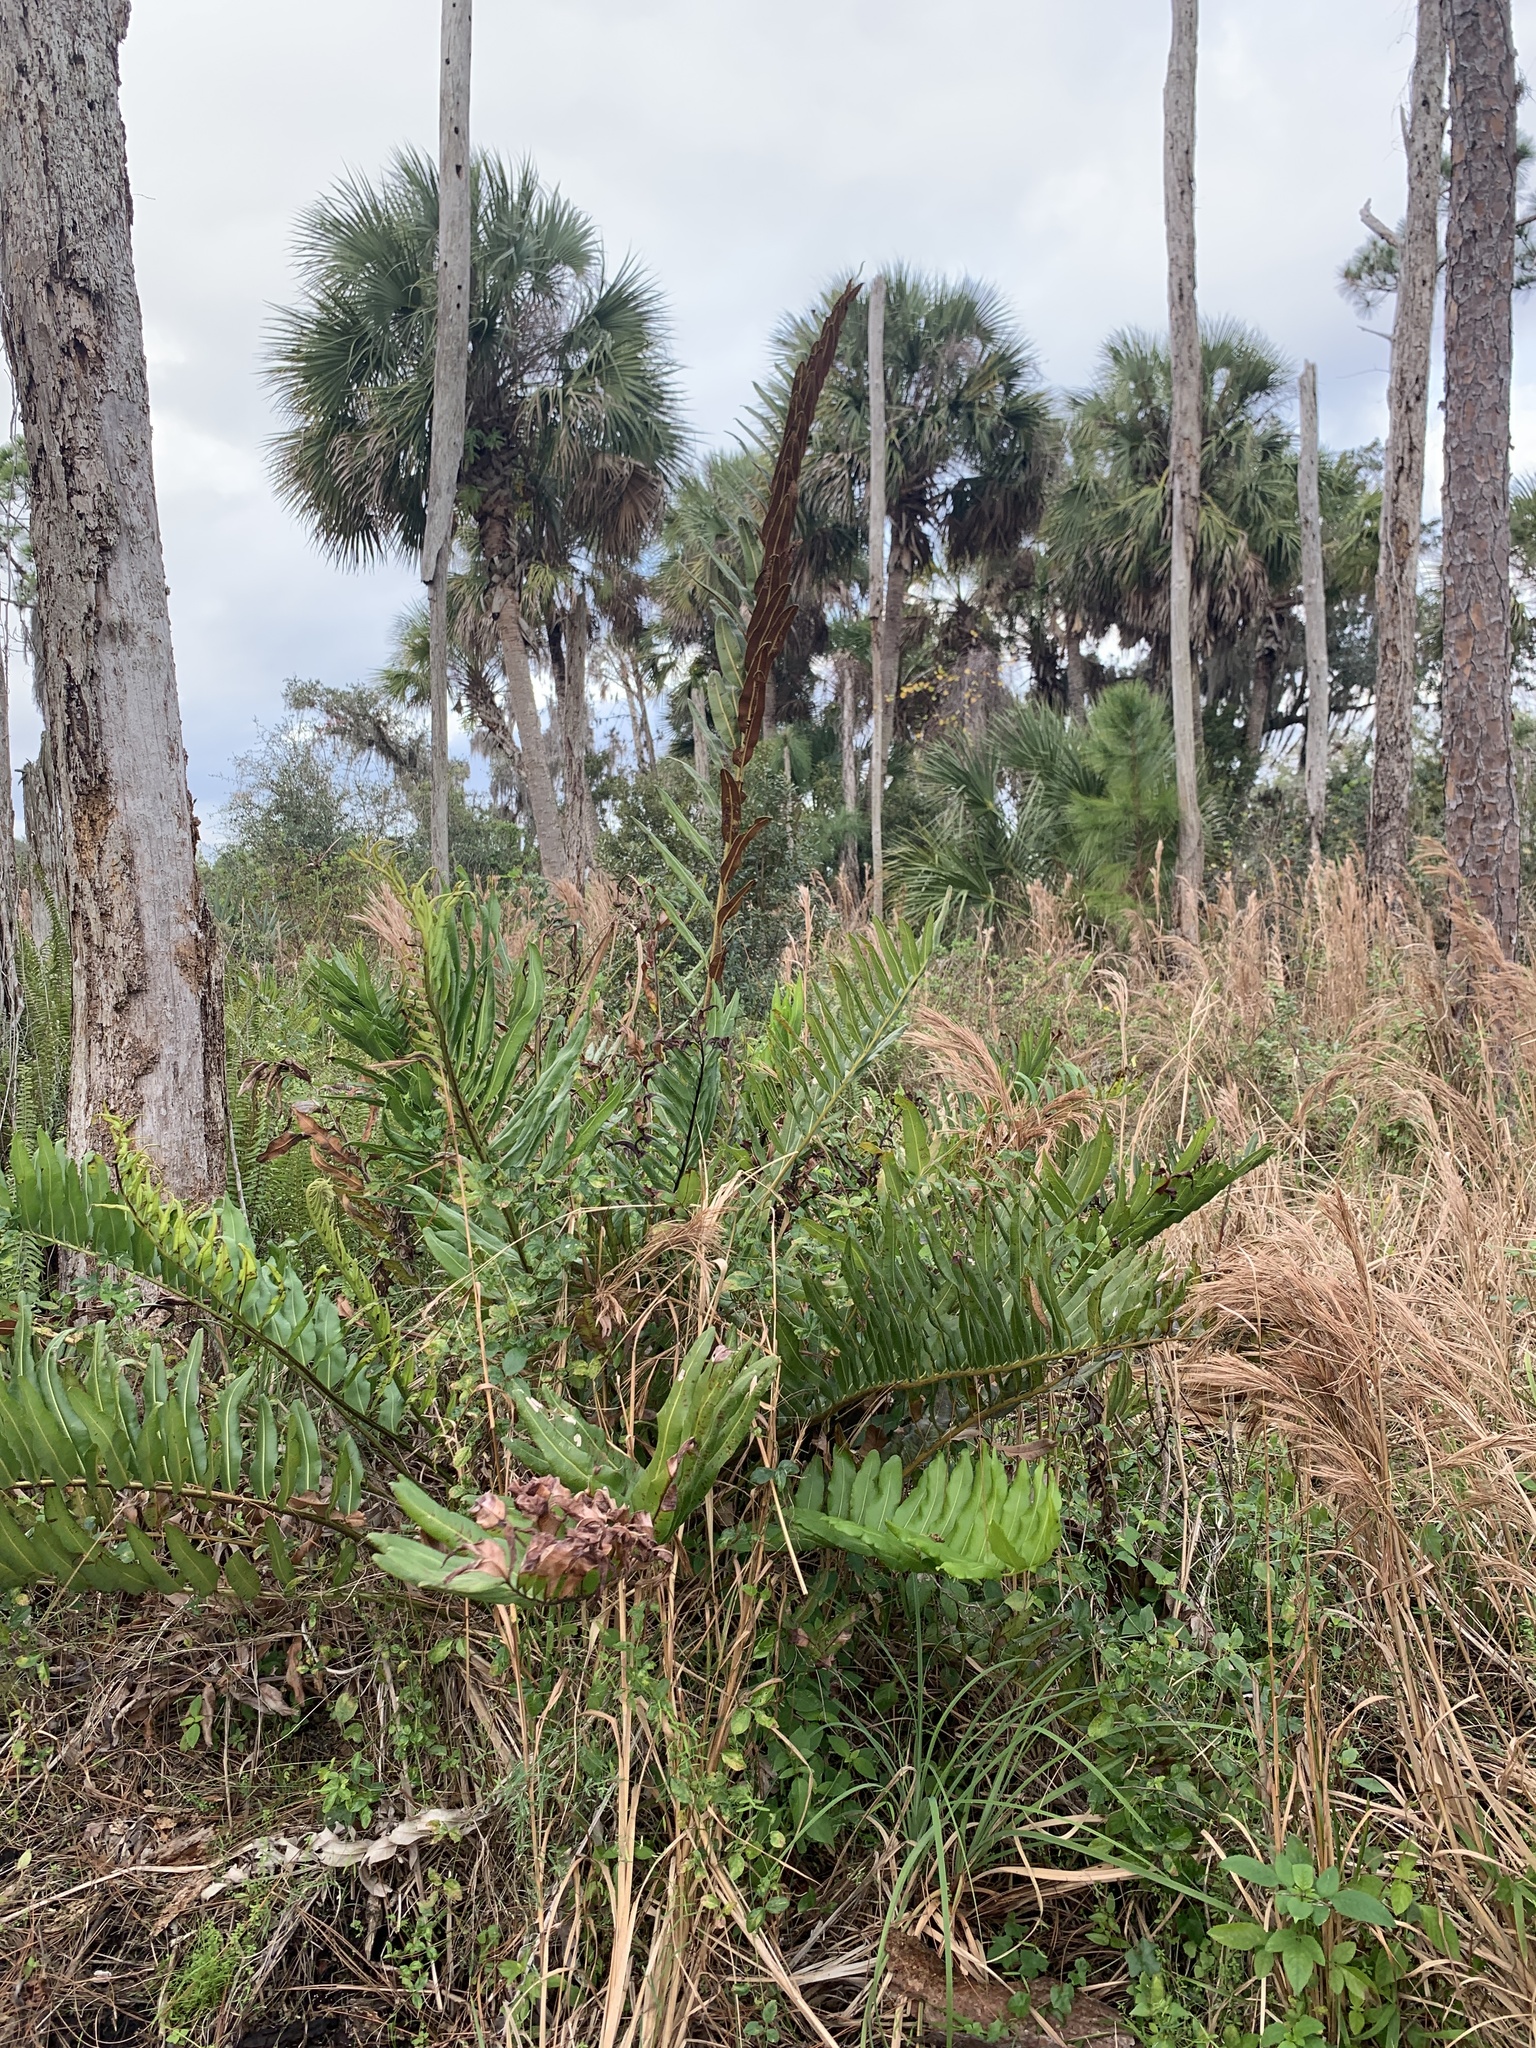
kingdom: Plantae
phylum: Tracheophyta
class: Polypodiopsida
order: Polypodiales
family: Pteridaceae
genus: Acrostichum
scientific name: Acrostichum danaeifolium
